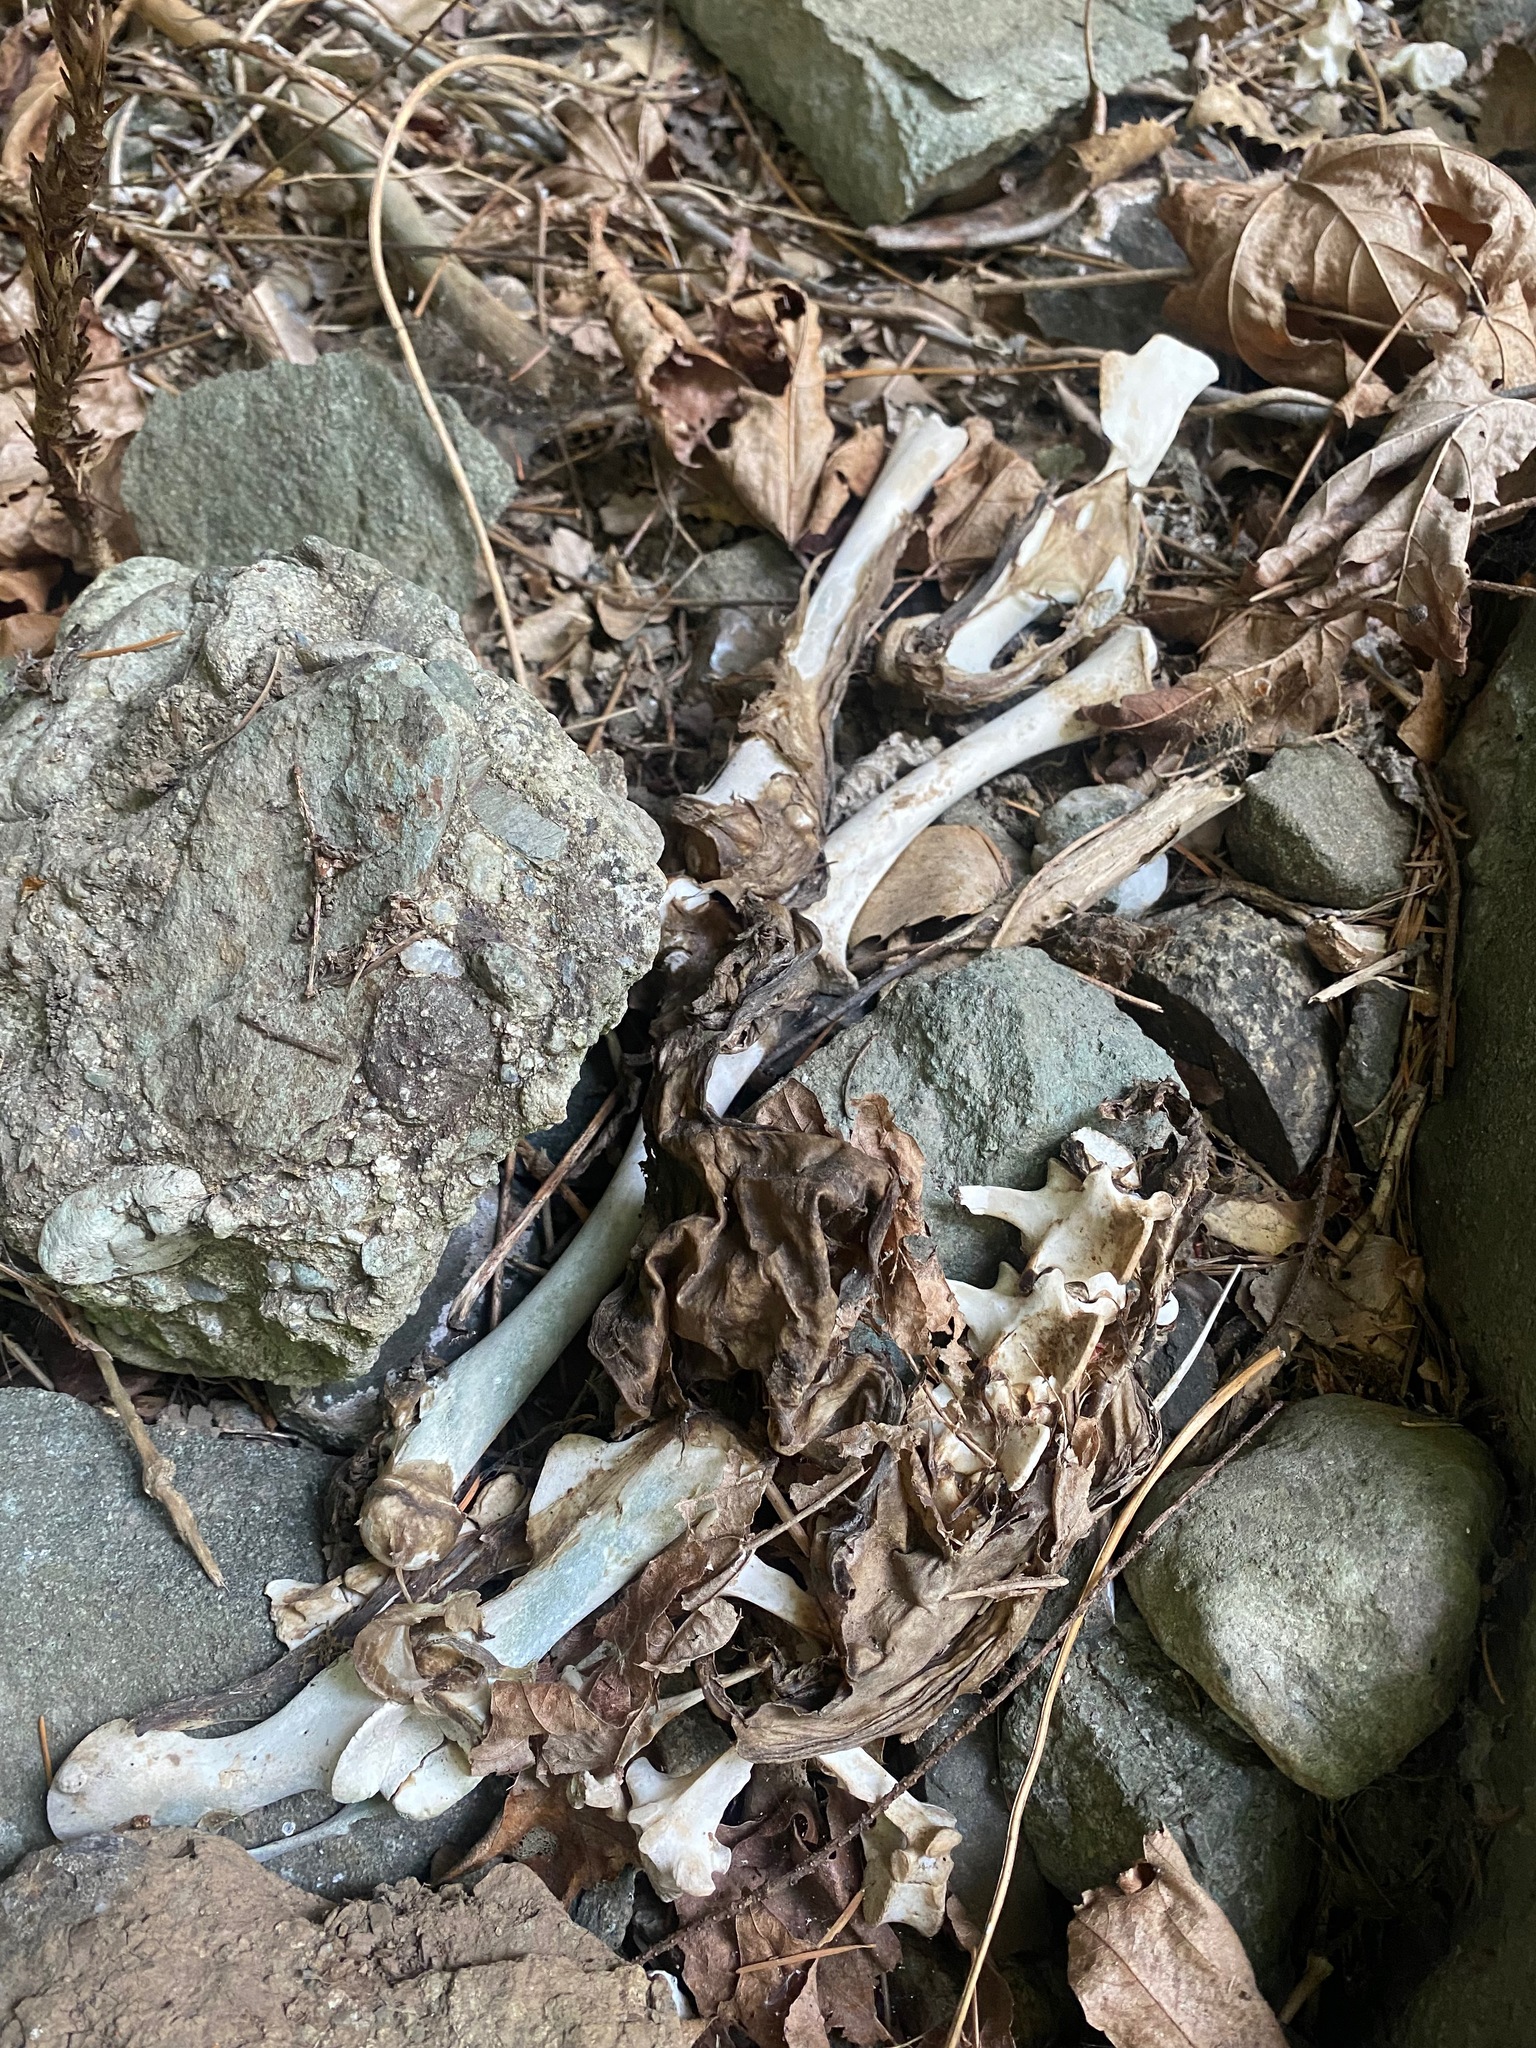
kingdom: Animalia
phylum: Chordata
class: Mammalia
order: Artiodactyla
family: Cervidae
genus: Odocoileus
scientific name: Odocoileus hemionus
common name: Mule deer
